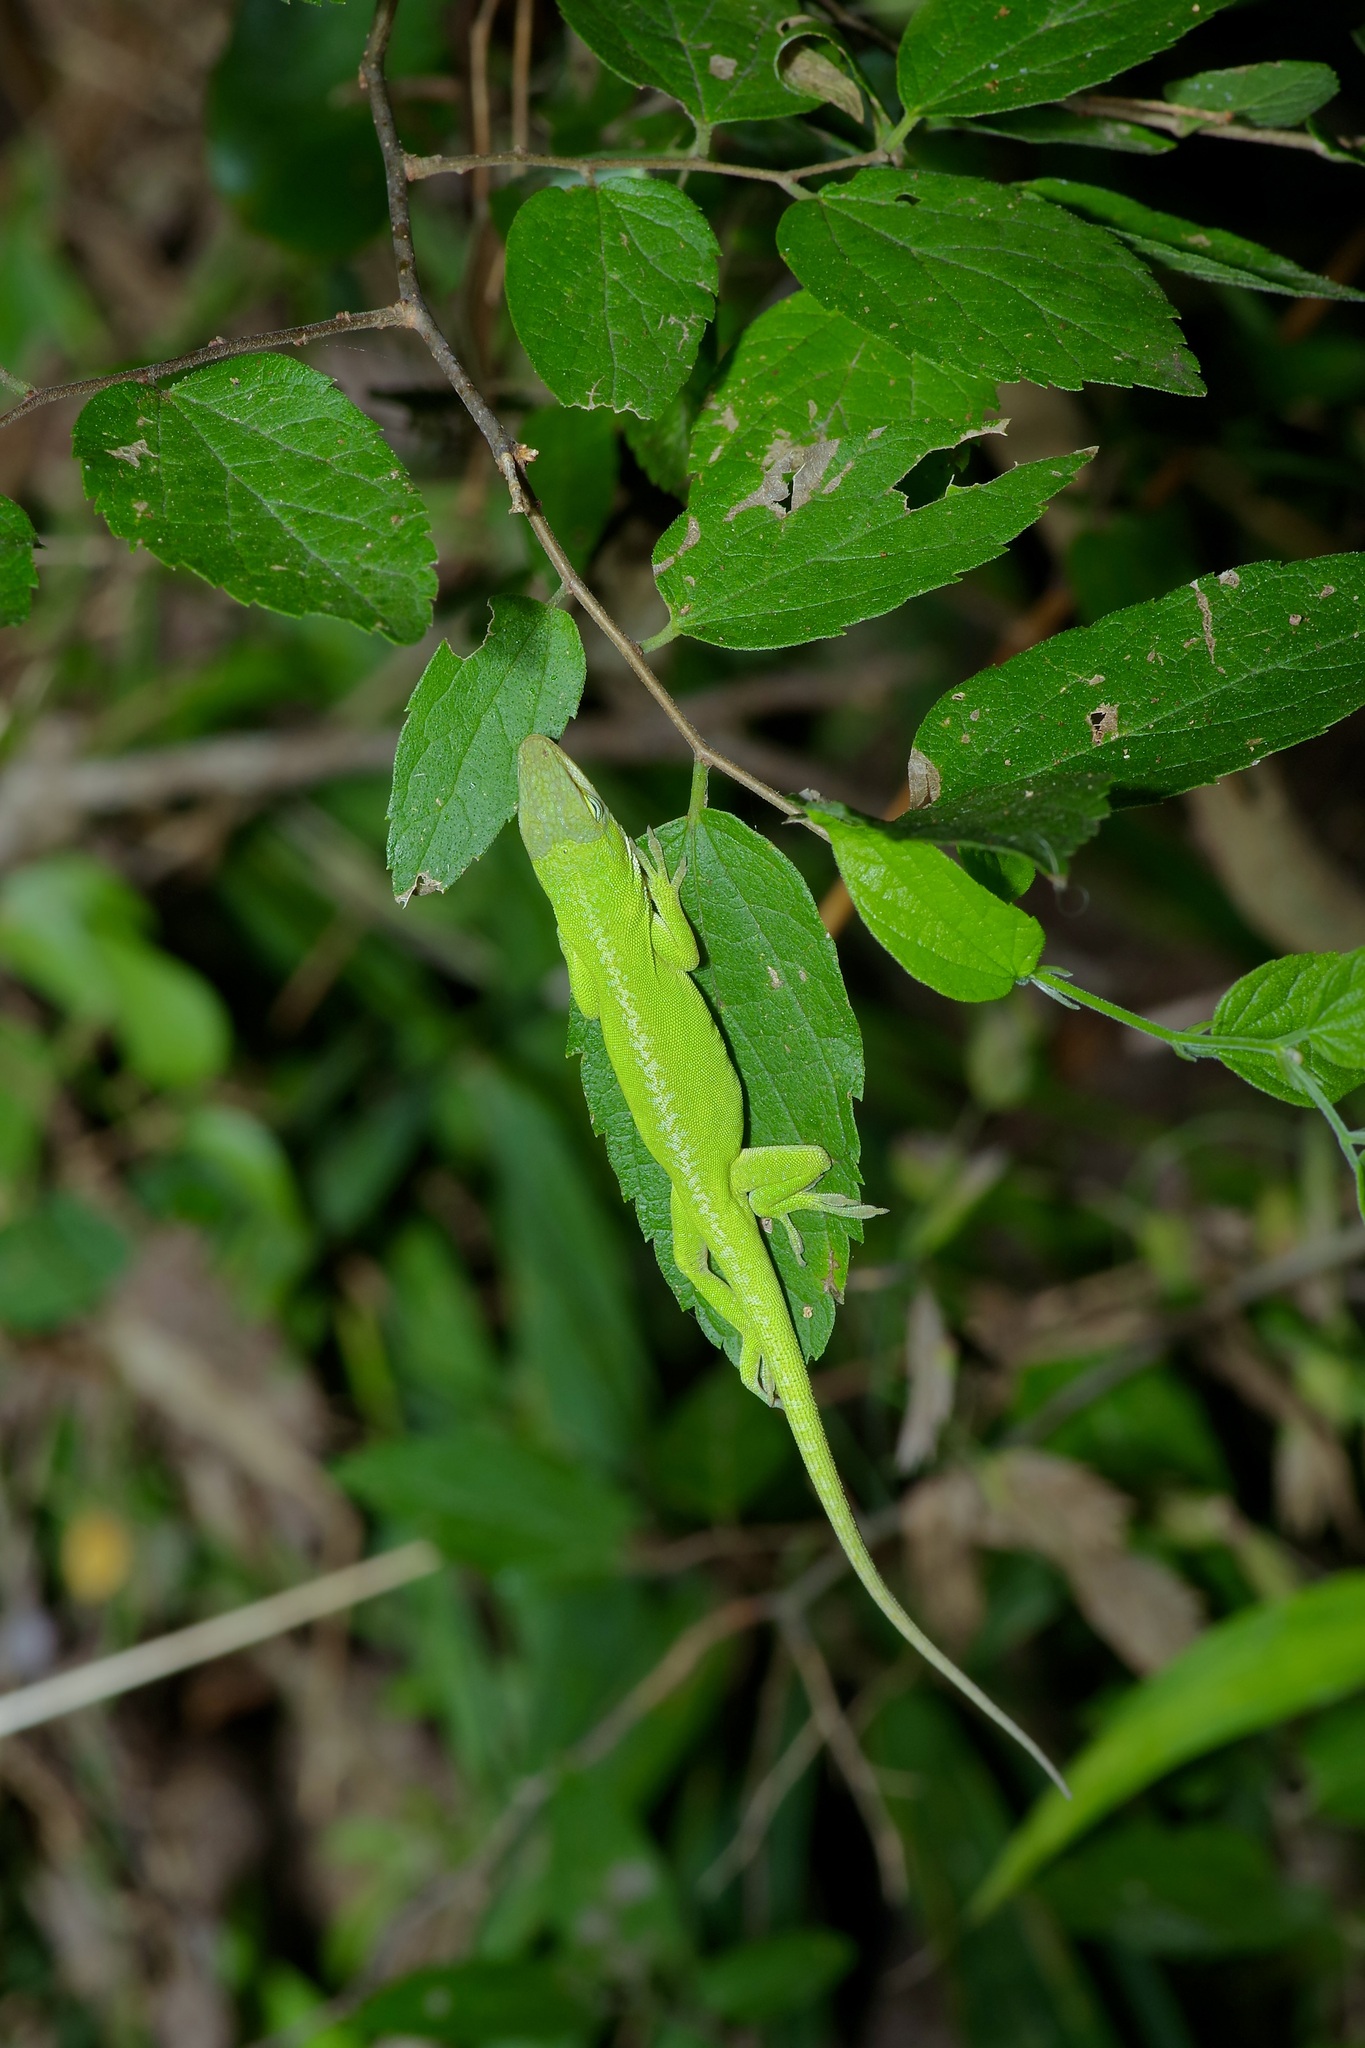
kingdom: Animalia
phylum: Chordata
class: Squamata
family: Dactyloidae
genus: Anolis
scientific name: Anolis carolinensis
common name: Green anole
